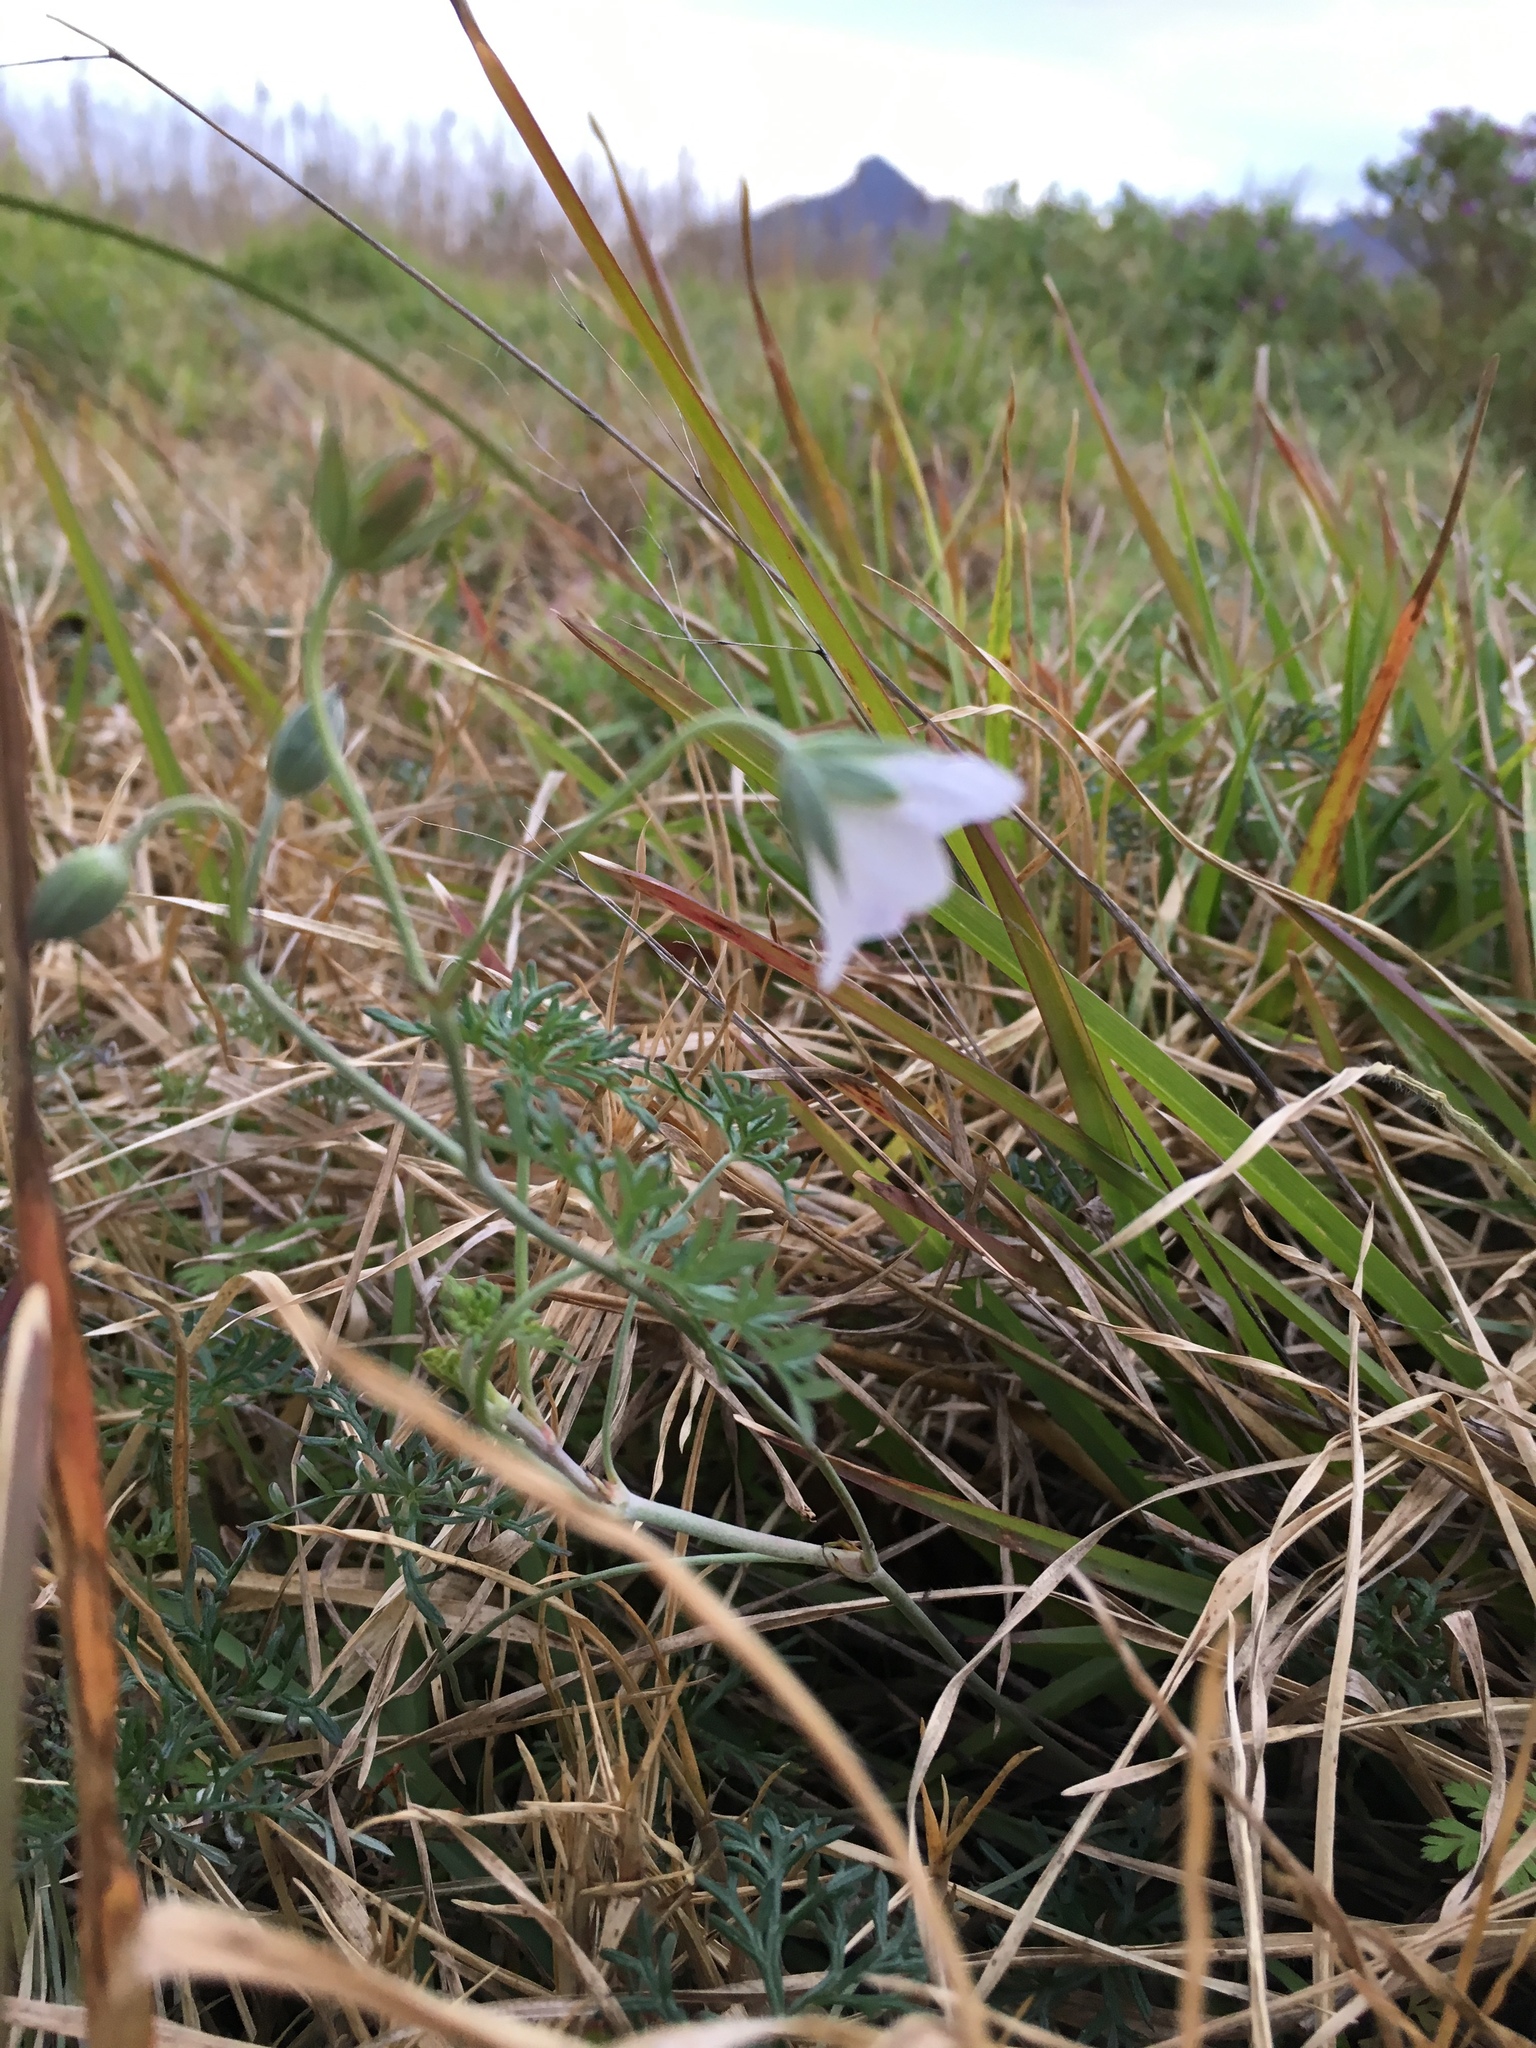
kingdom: Plantae
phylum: Tracheophyta
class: Magnoliopsida
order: Geraniales
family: Geraniaceae
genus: Geranium
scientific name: Geranium incanum
